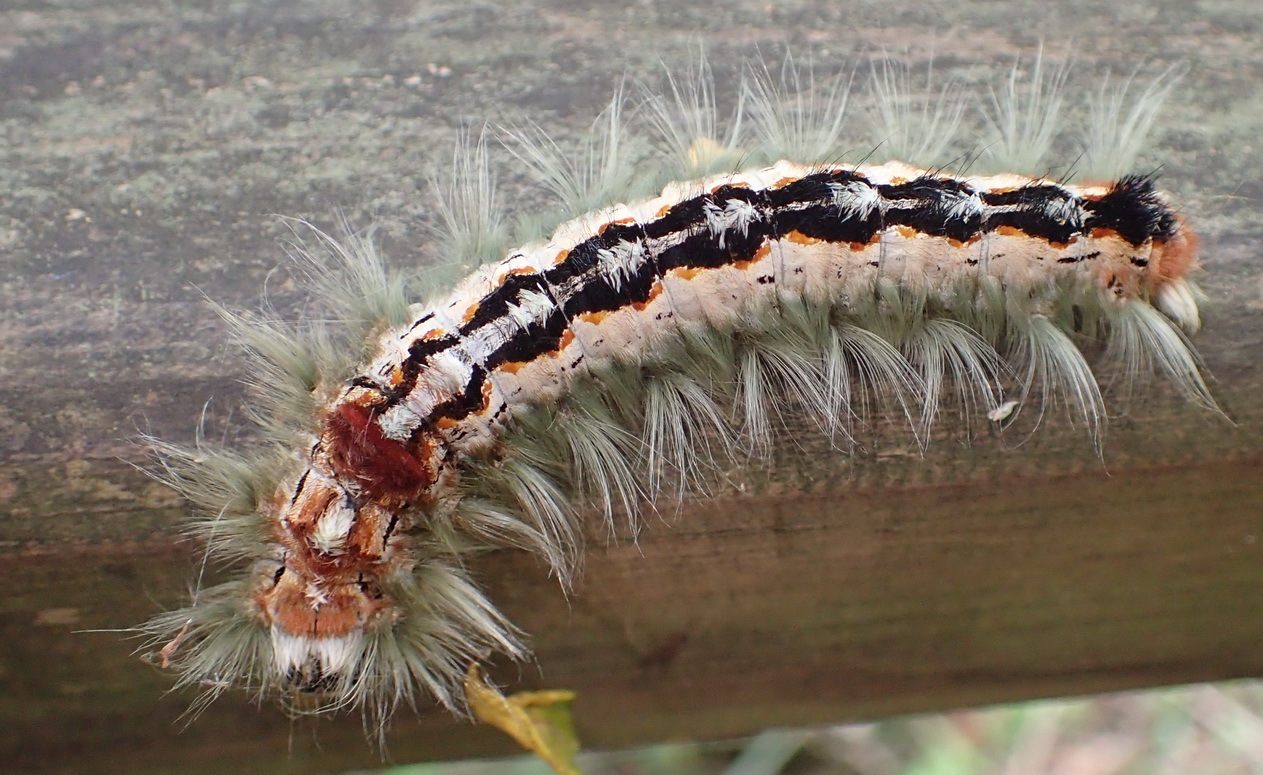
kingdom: Animalia
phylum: Arthropoda
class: Insecta
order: Lepidoptera
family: Lasiocampidae
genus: Eutricha
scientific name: Eutricha capensis
